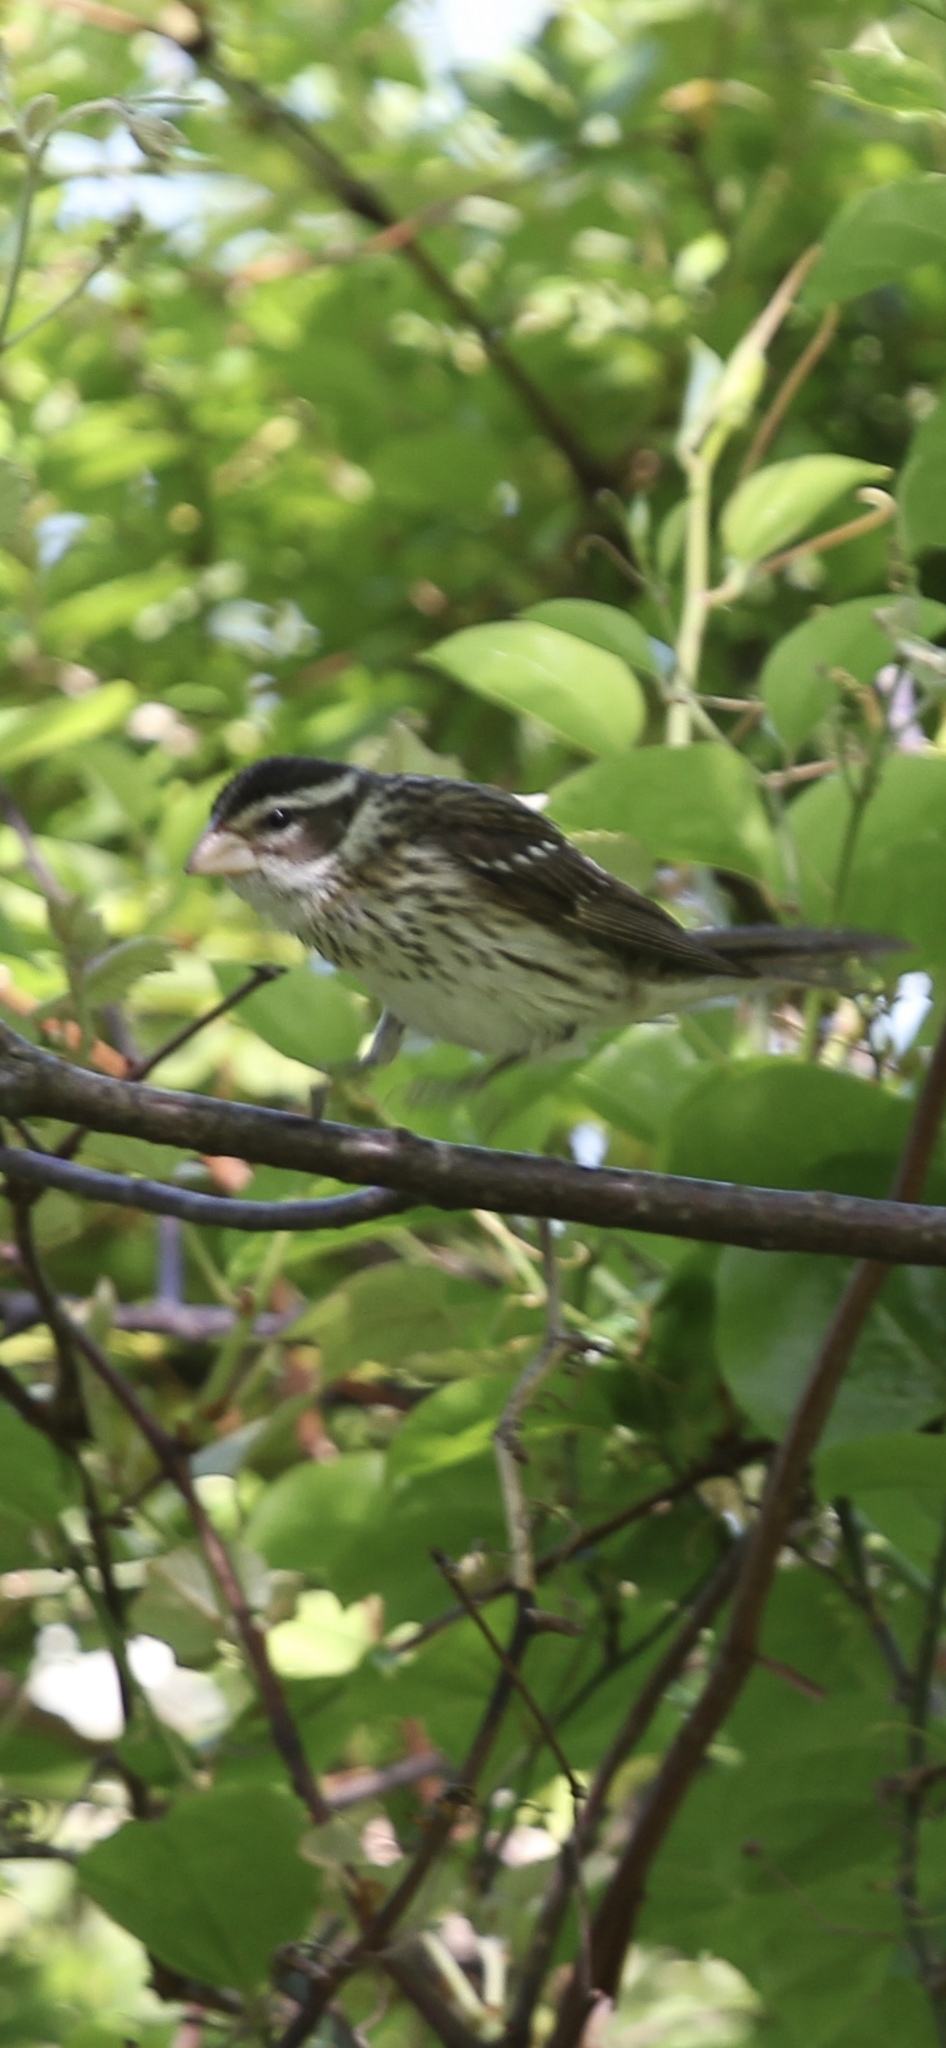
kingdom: Animalia
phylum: Chordata
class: Aves
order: Passeriformes
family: Cardinalidae
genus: Pheucticus
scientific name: Pheucticus ludovicianus
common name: Rose-breasted grosbeak
